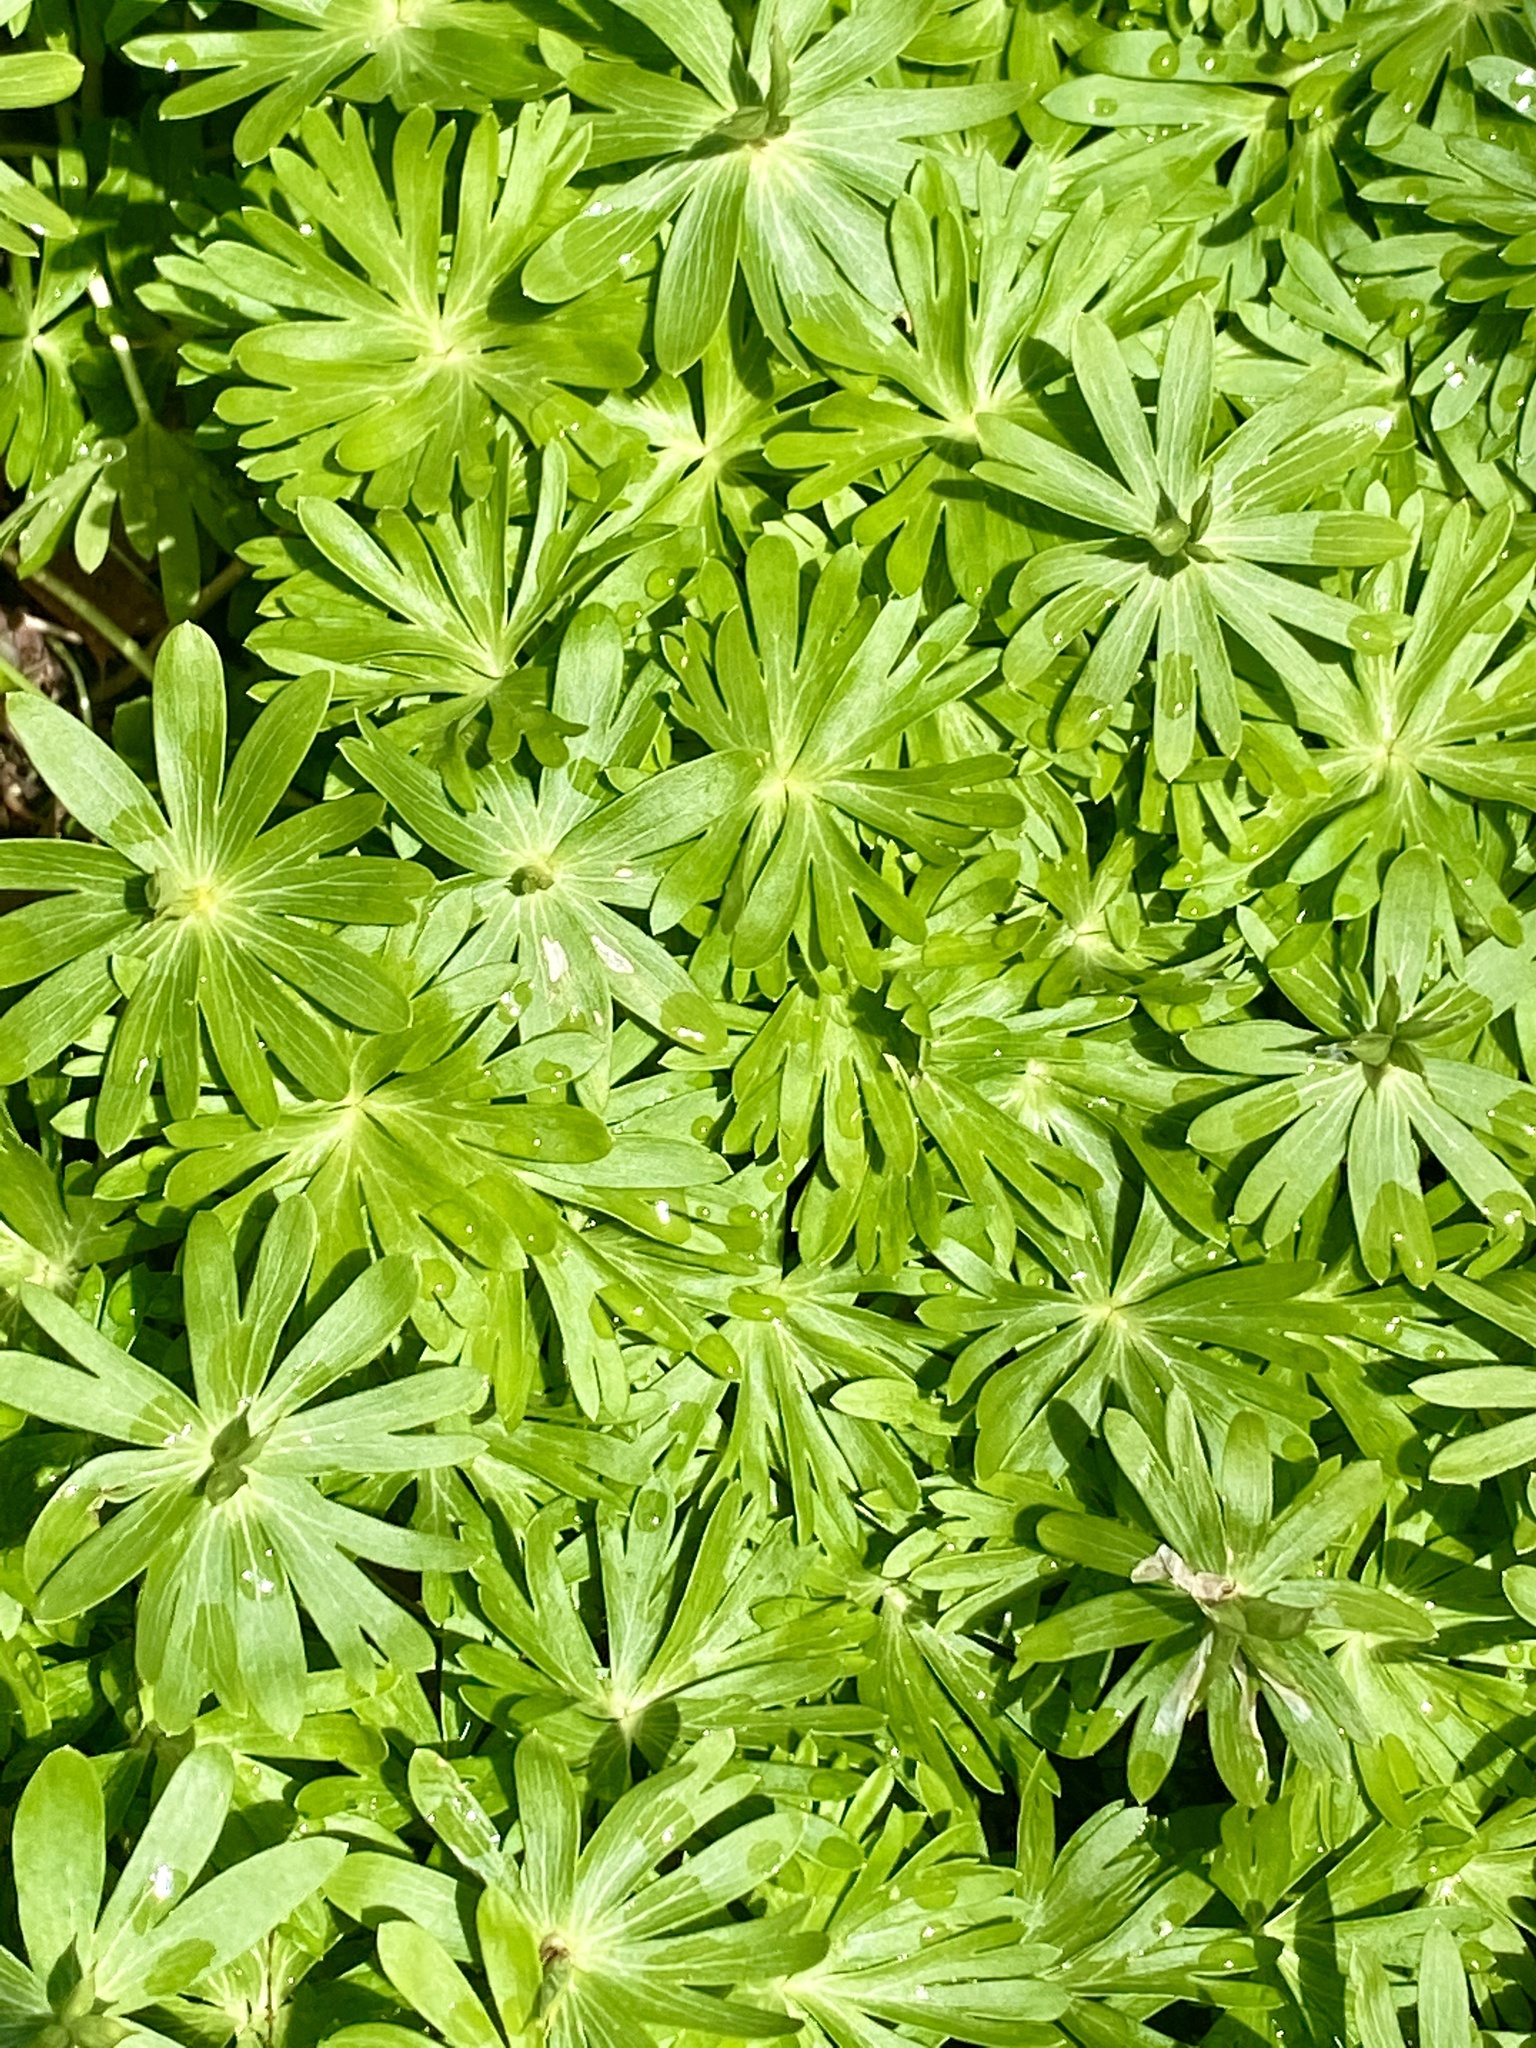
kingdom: Plantae
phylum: Tracheophyta
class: Magnoliopsida
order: Ranunculales
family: Ranunculaceae
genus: Eranthis
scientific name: Eranthis hyemalis
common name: Winter aconite
